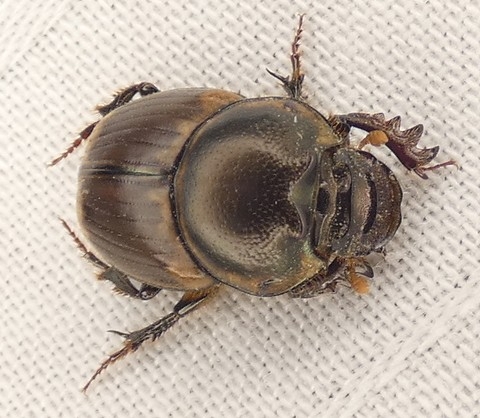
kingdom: Animalia
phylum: Arthropoda
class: Insecta
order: Coleoptera
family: Scarabaeidae
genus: Digitonthophagus
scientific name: Digitonthophagus gazella
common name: Brown dung beetle
